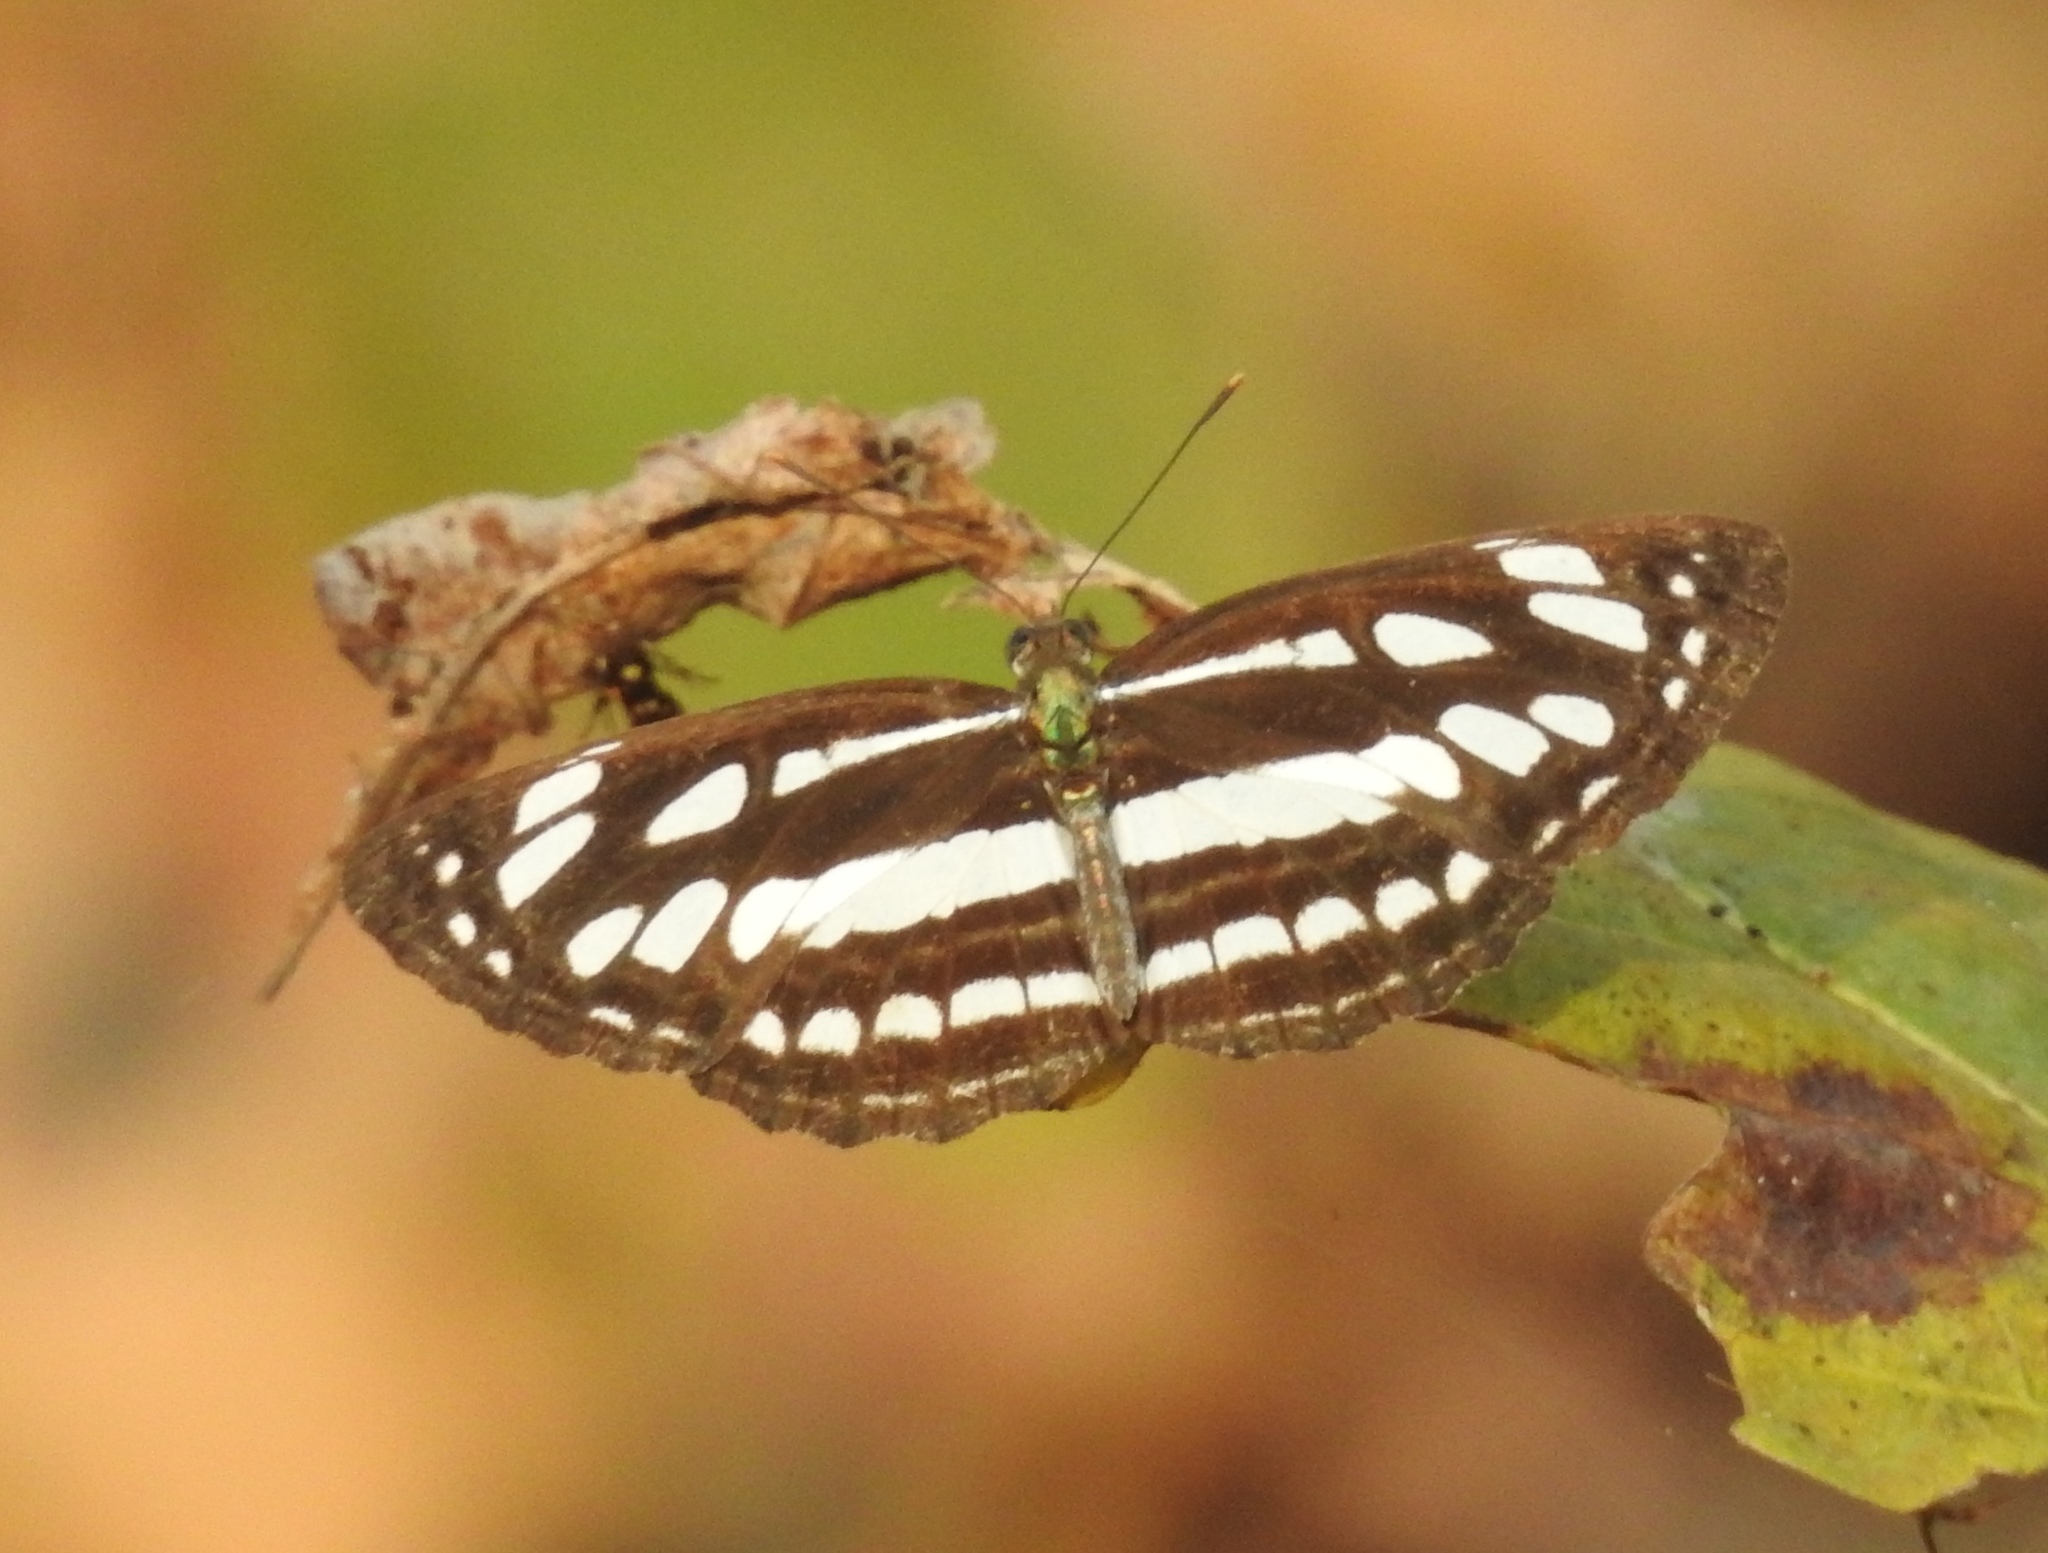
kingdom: Animalia
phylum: Arthropoda
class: Insecta
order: Lepidoptera
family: Nymphalidae
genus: Neptis
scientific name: Neptis hylas
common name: Common sailer
